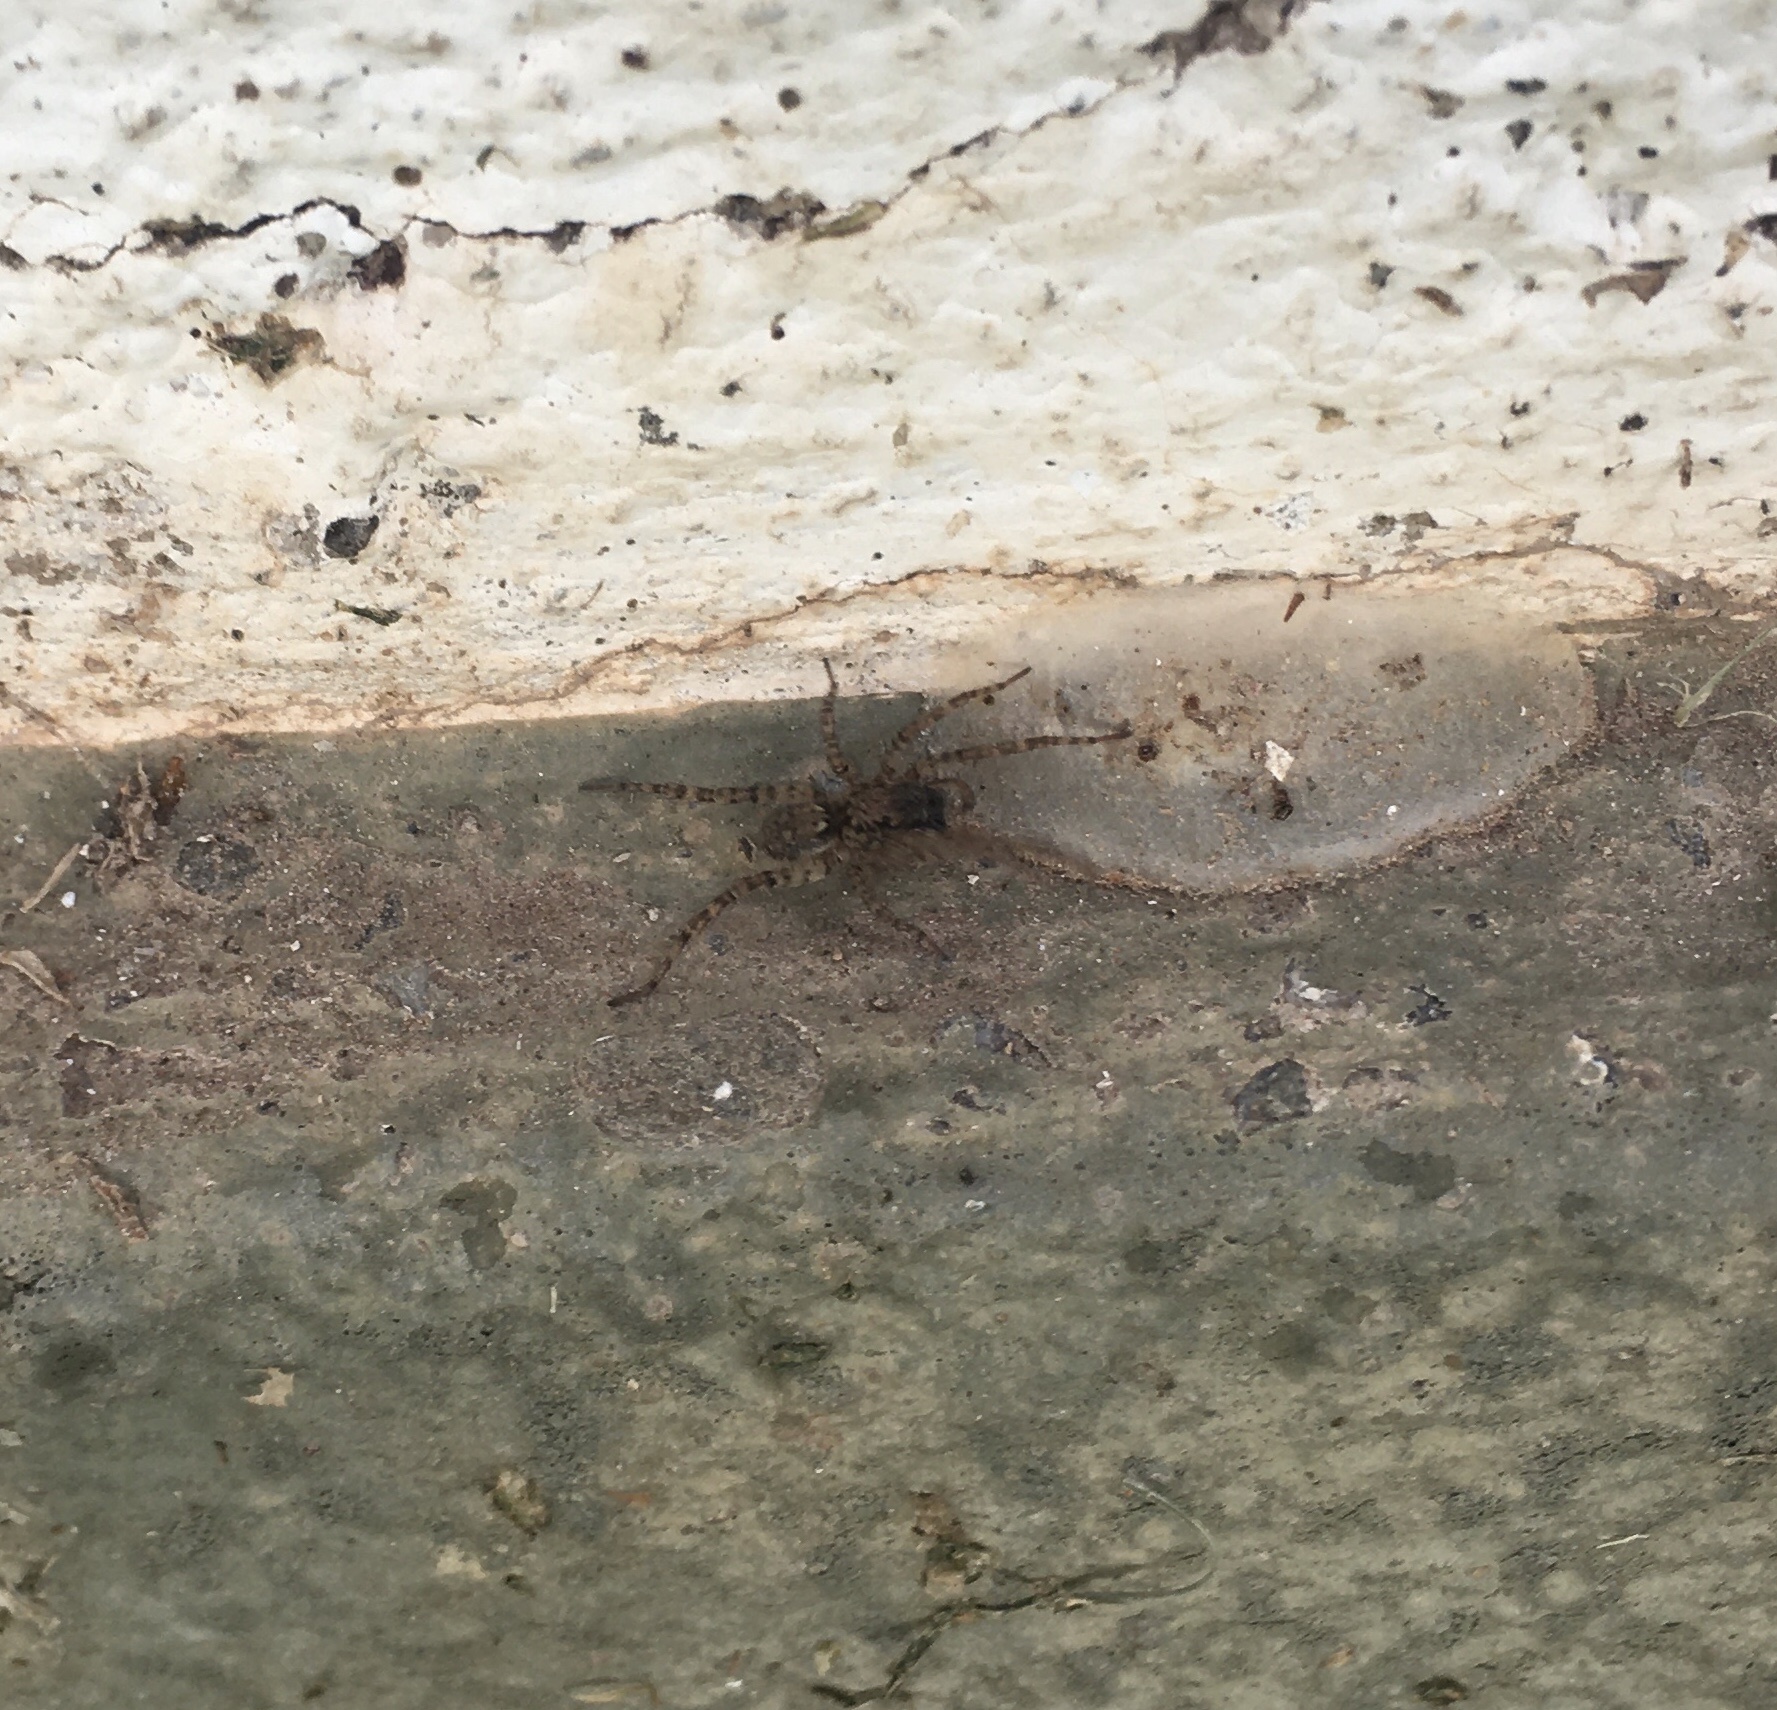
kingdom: Animalia
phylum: Arthropoda
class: Arachnida
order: Araneae
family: Lycosidae
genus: Paratrochosina
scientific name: Paratrochosina amica
